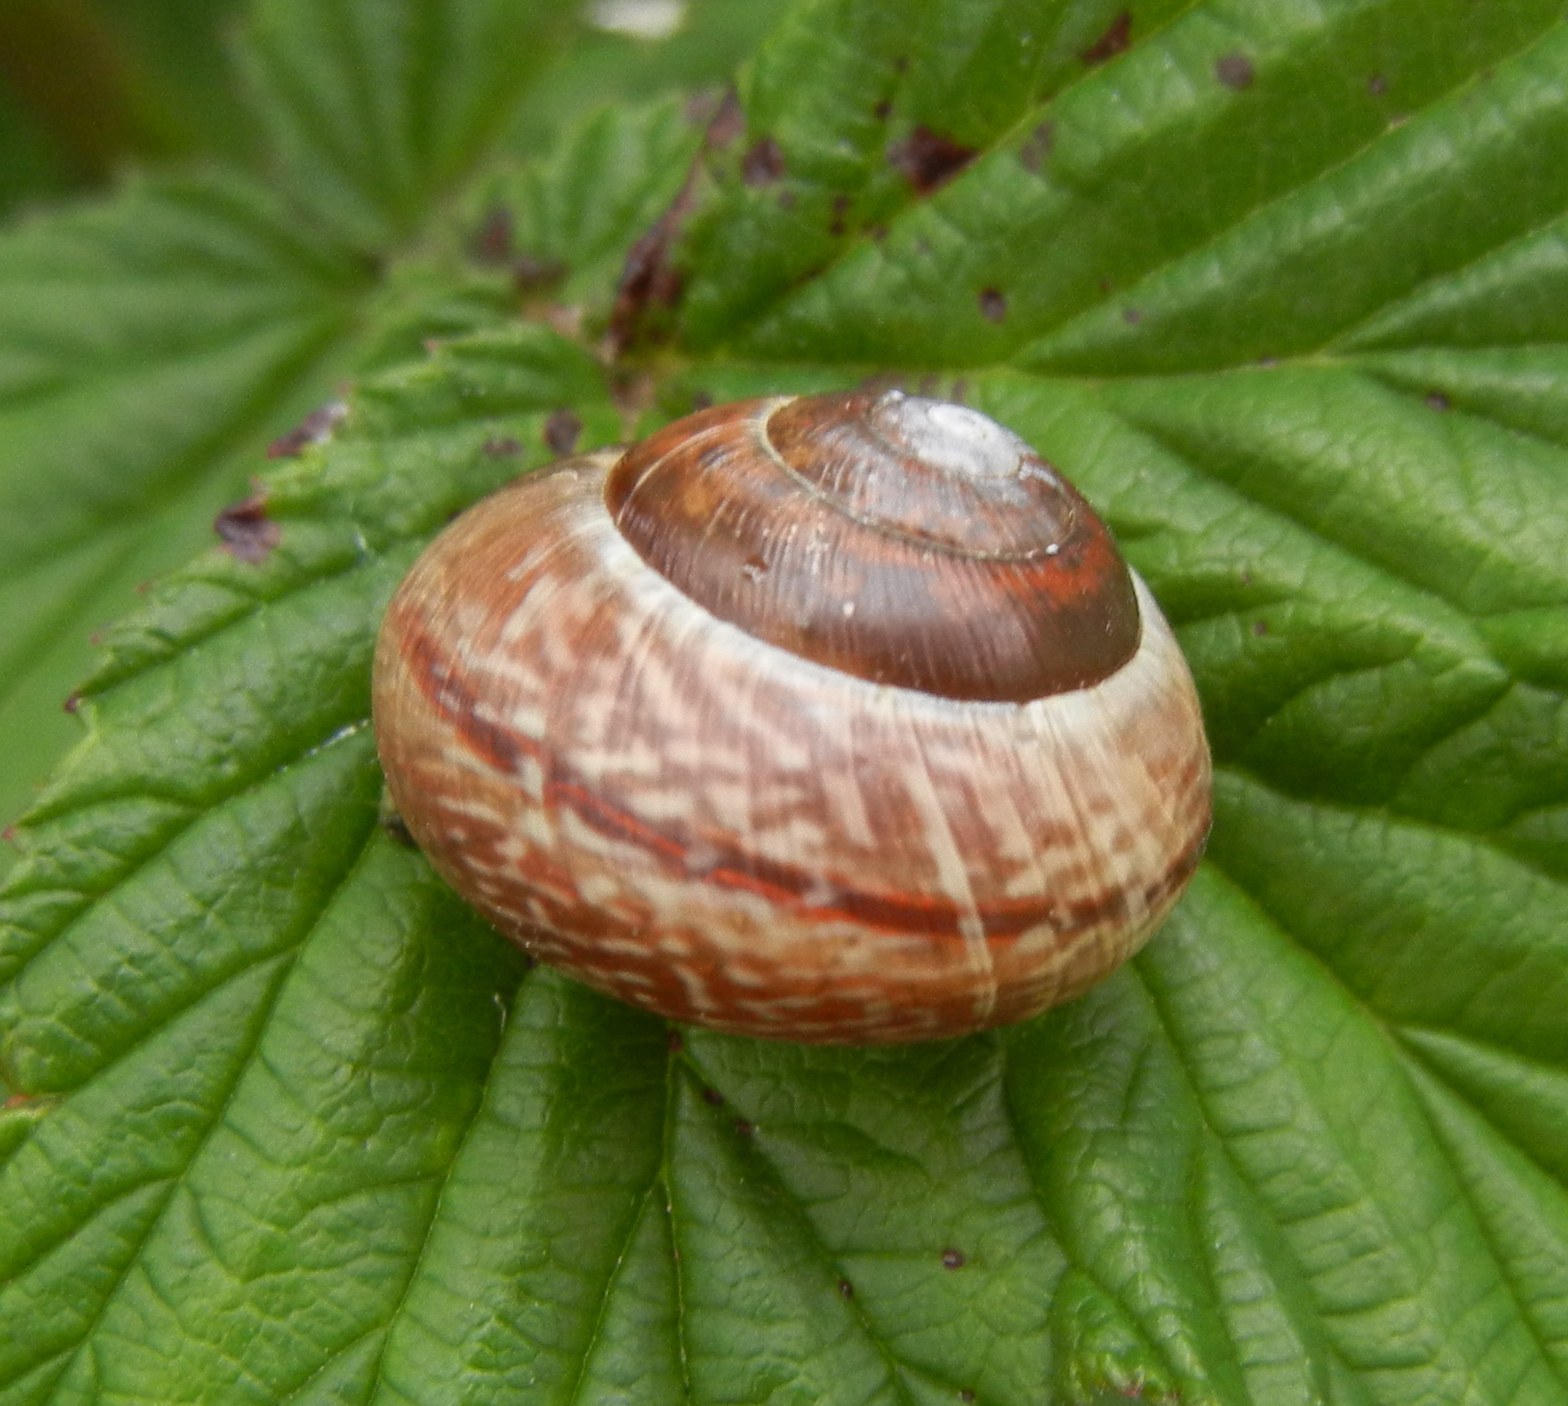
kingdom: Animalia
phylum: Mollusca
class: Gastropoda
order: Stylommatophora
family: Helicidae
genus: Arianta
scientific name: Arianta arbustorum
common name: Copse snail
